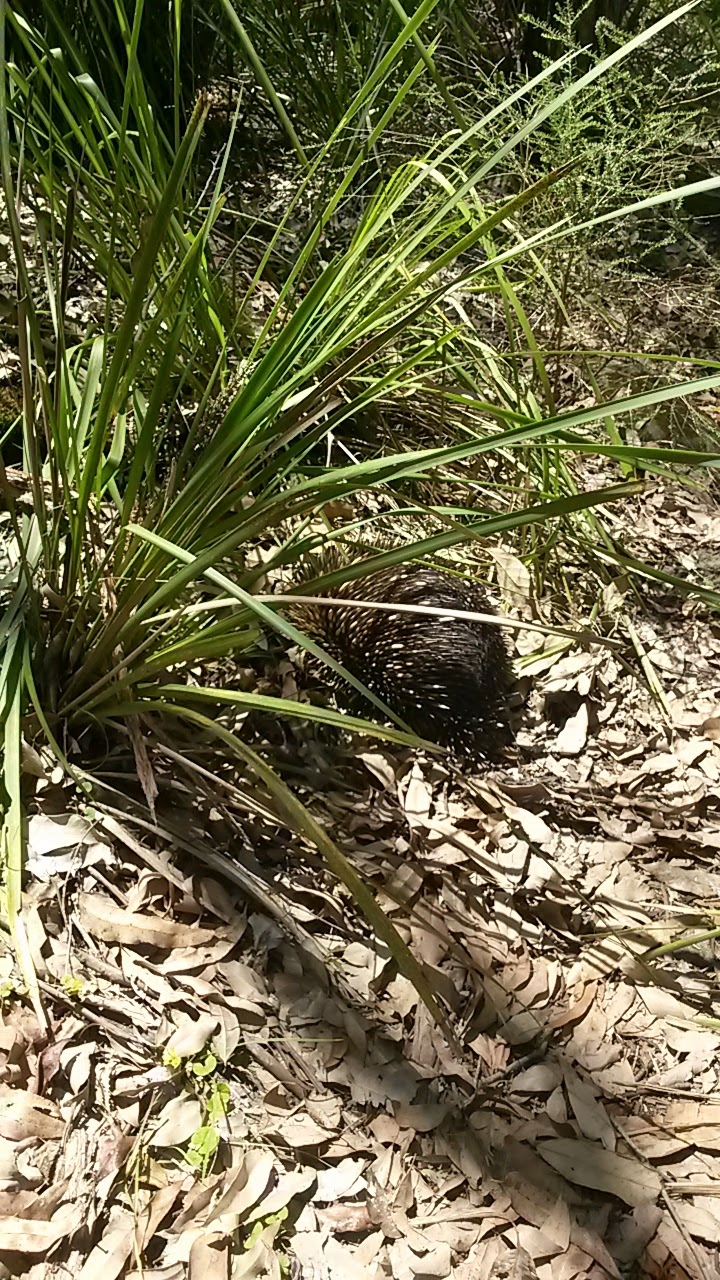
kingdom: Animalia
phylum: Chordata
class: Mammalia
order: Monotremata
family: Tachyglossidae
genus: Tachyglossus
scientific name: Tachyglossus aculeatus
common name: Short-beaked echidna
